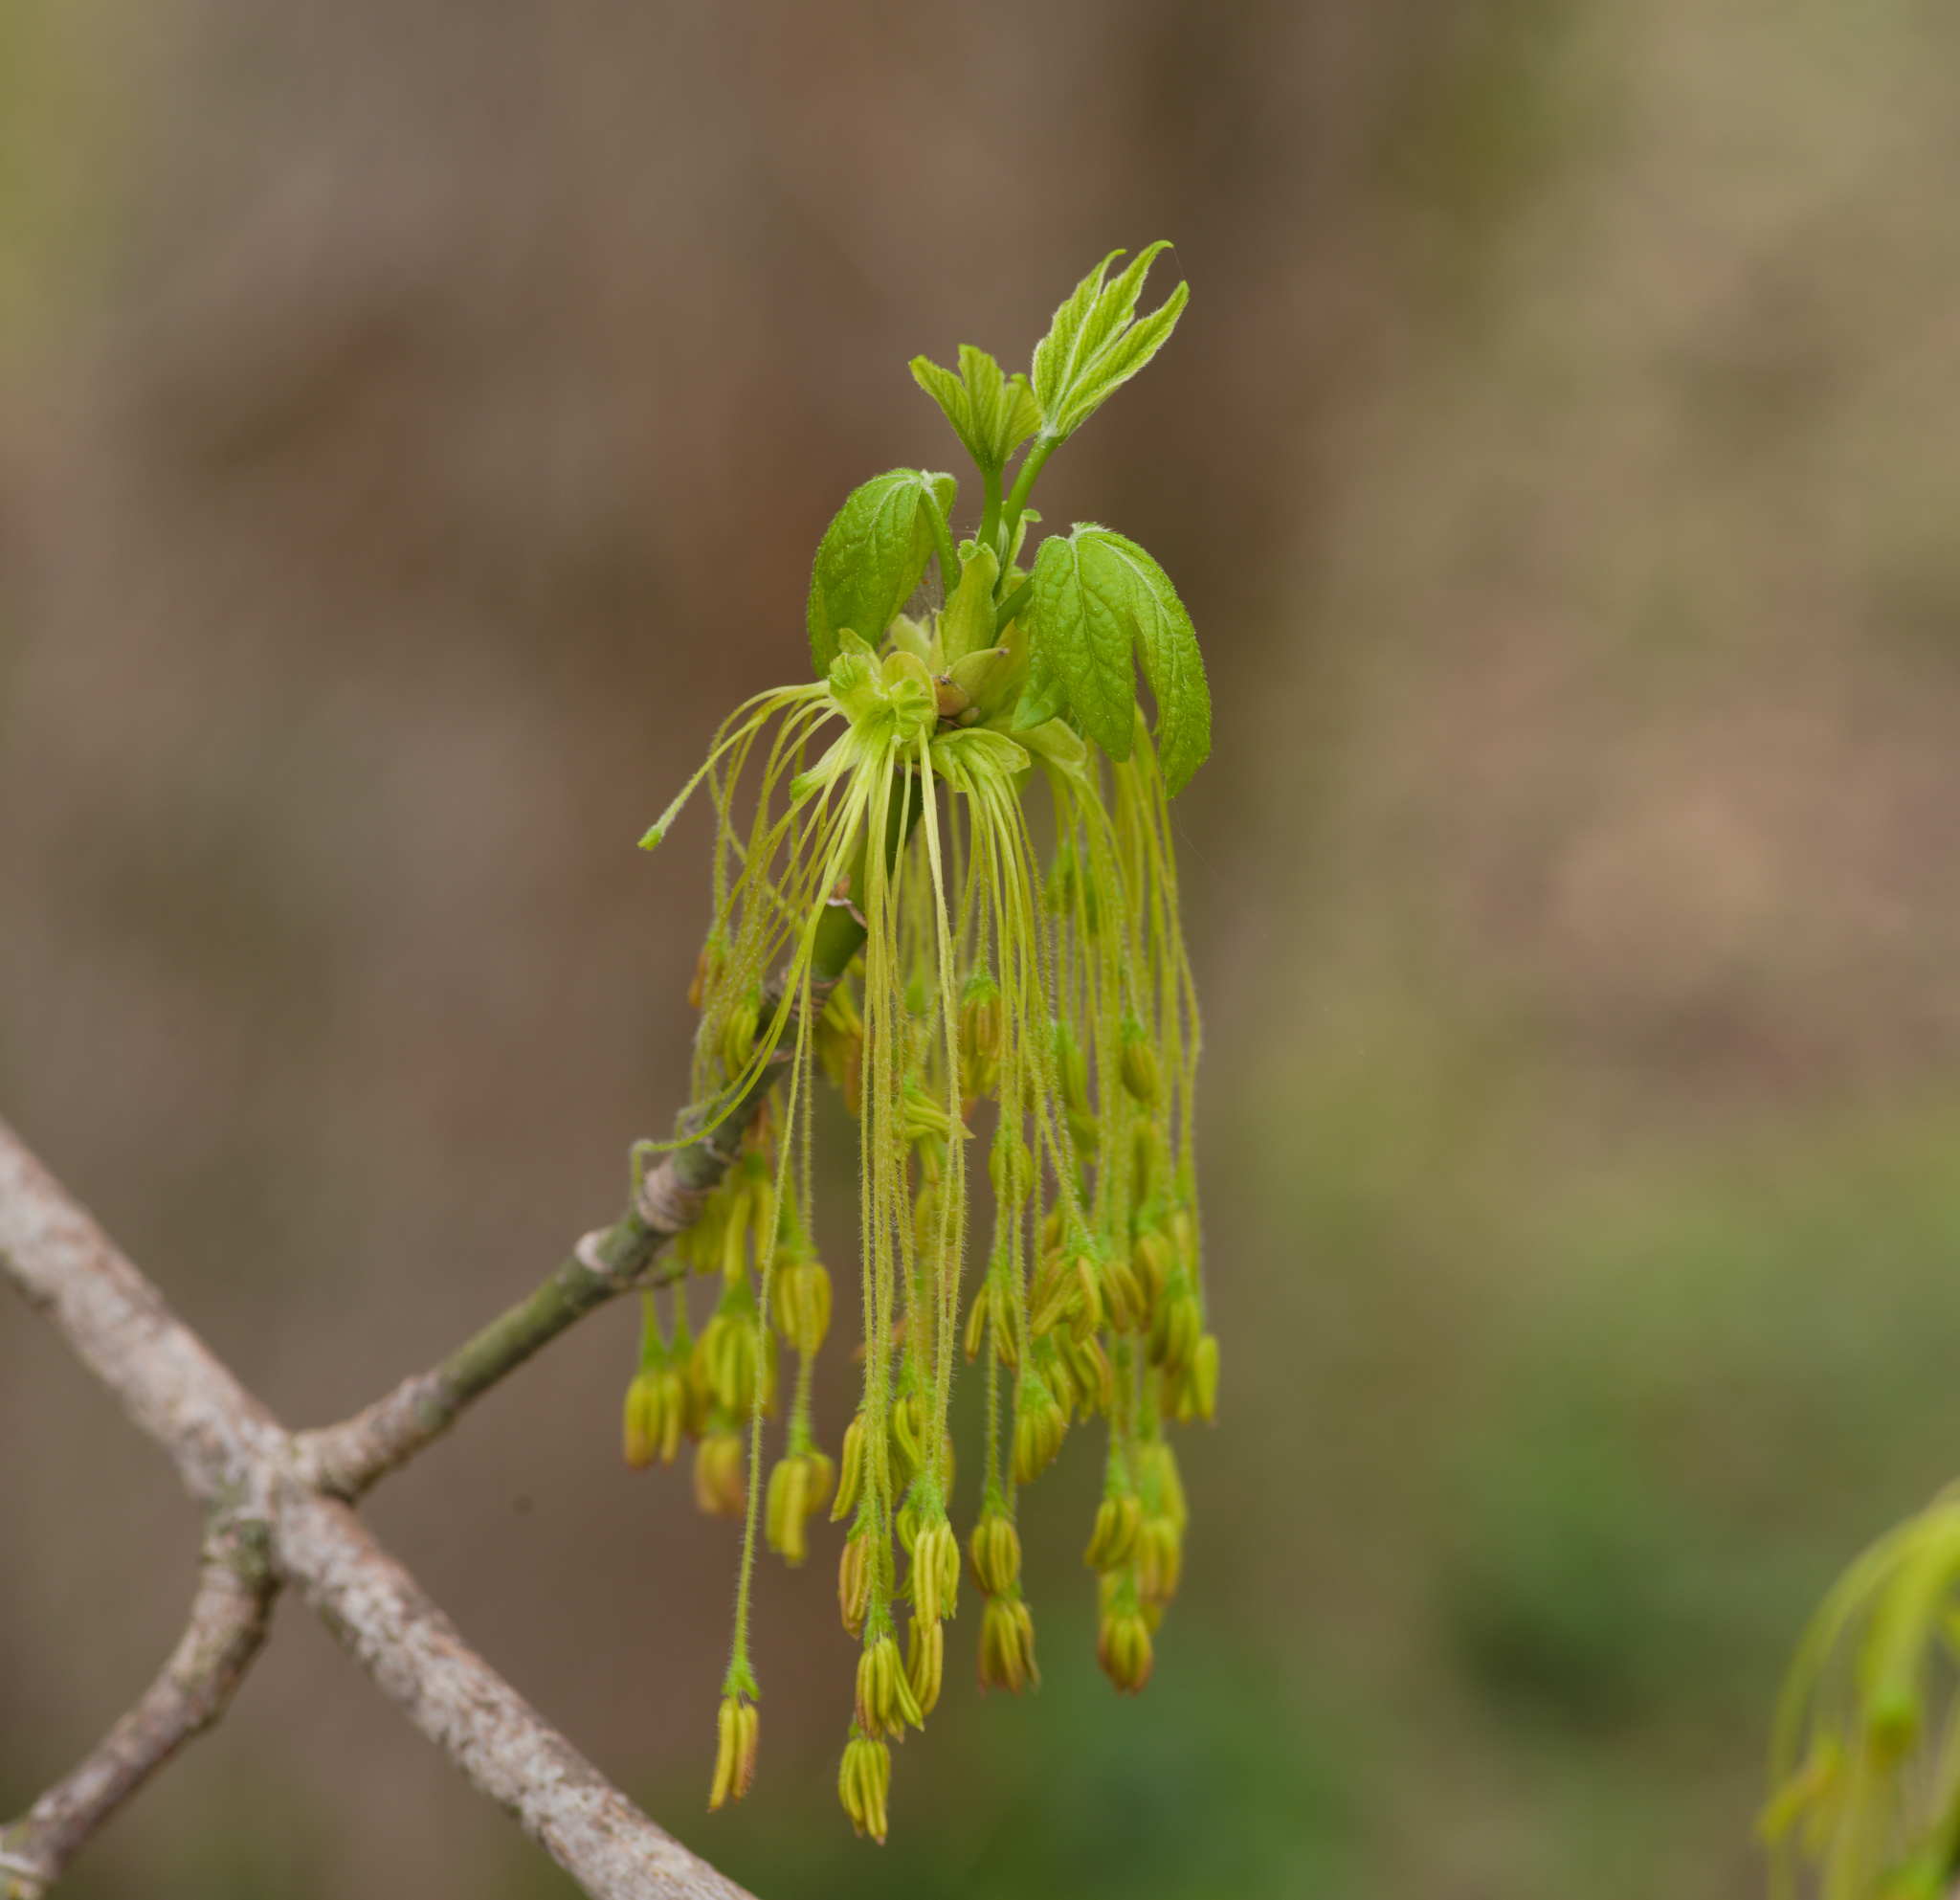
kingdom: Plantae
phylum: Tracheophyta
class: Magnoliopsida
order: Sapindales
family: Sapindaceae
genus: Acer
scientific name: Acer negundo
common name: Ashleaf maple
